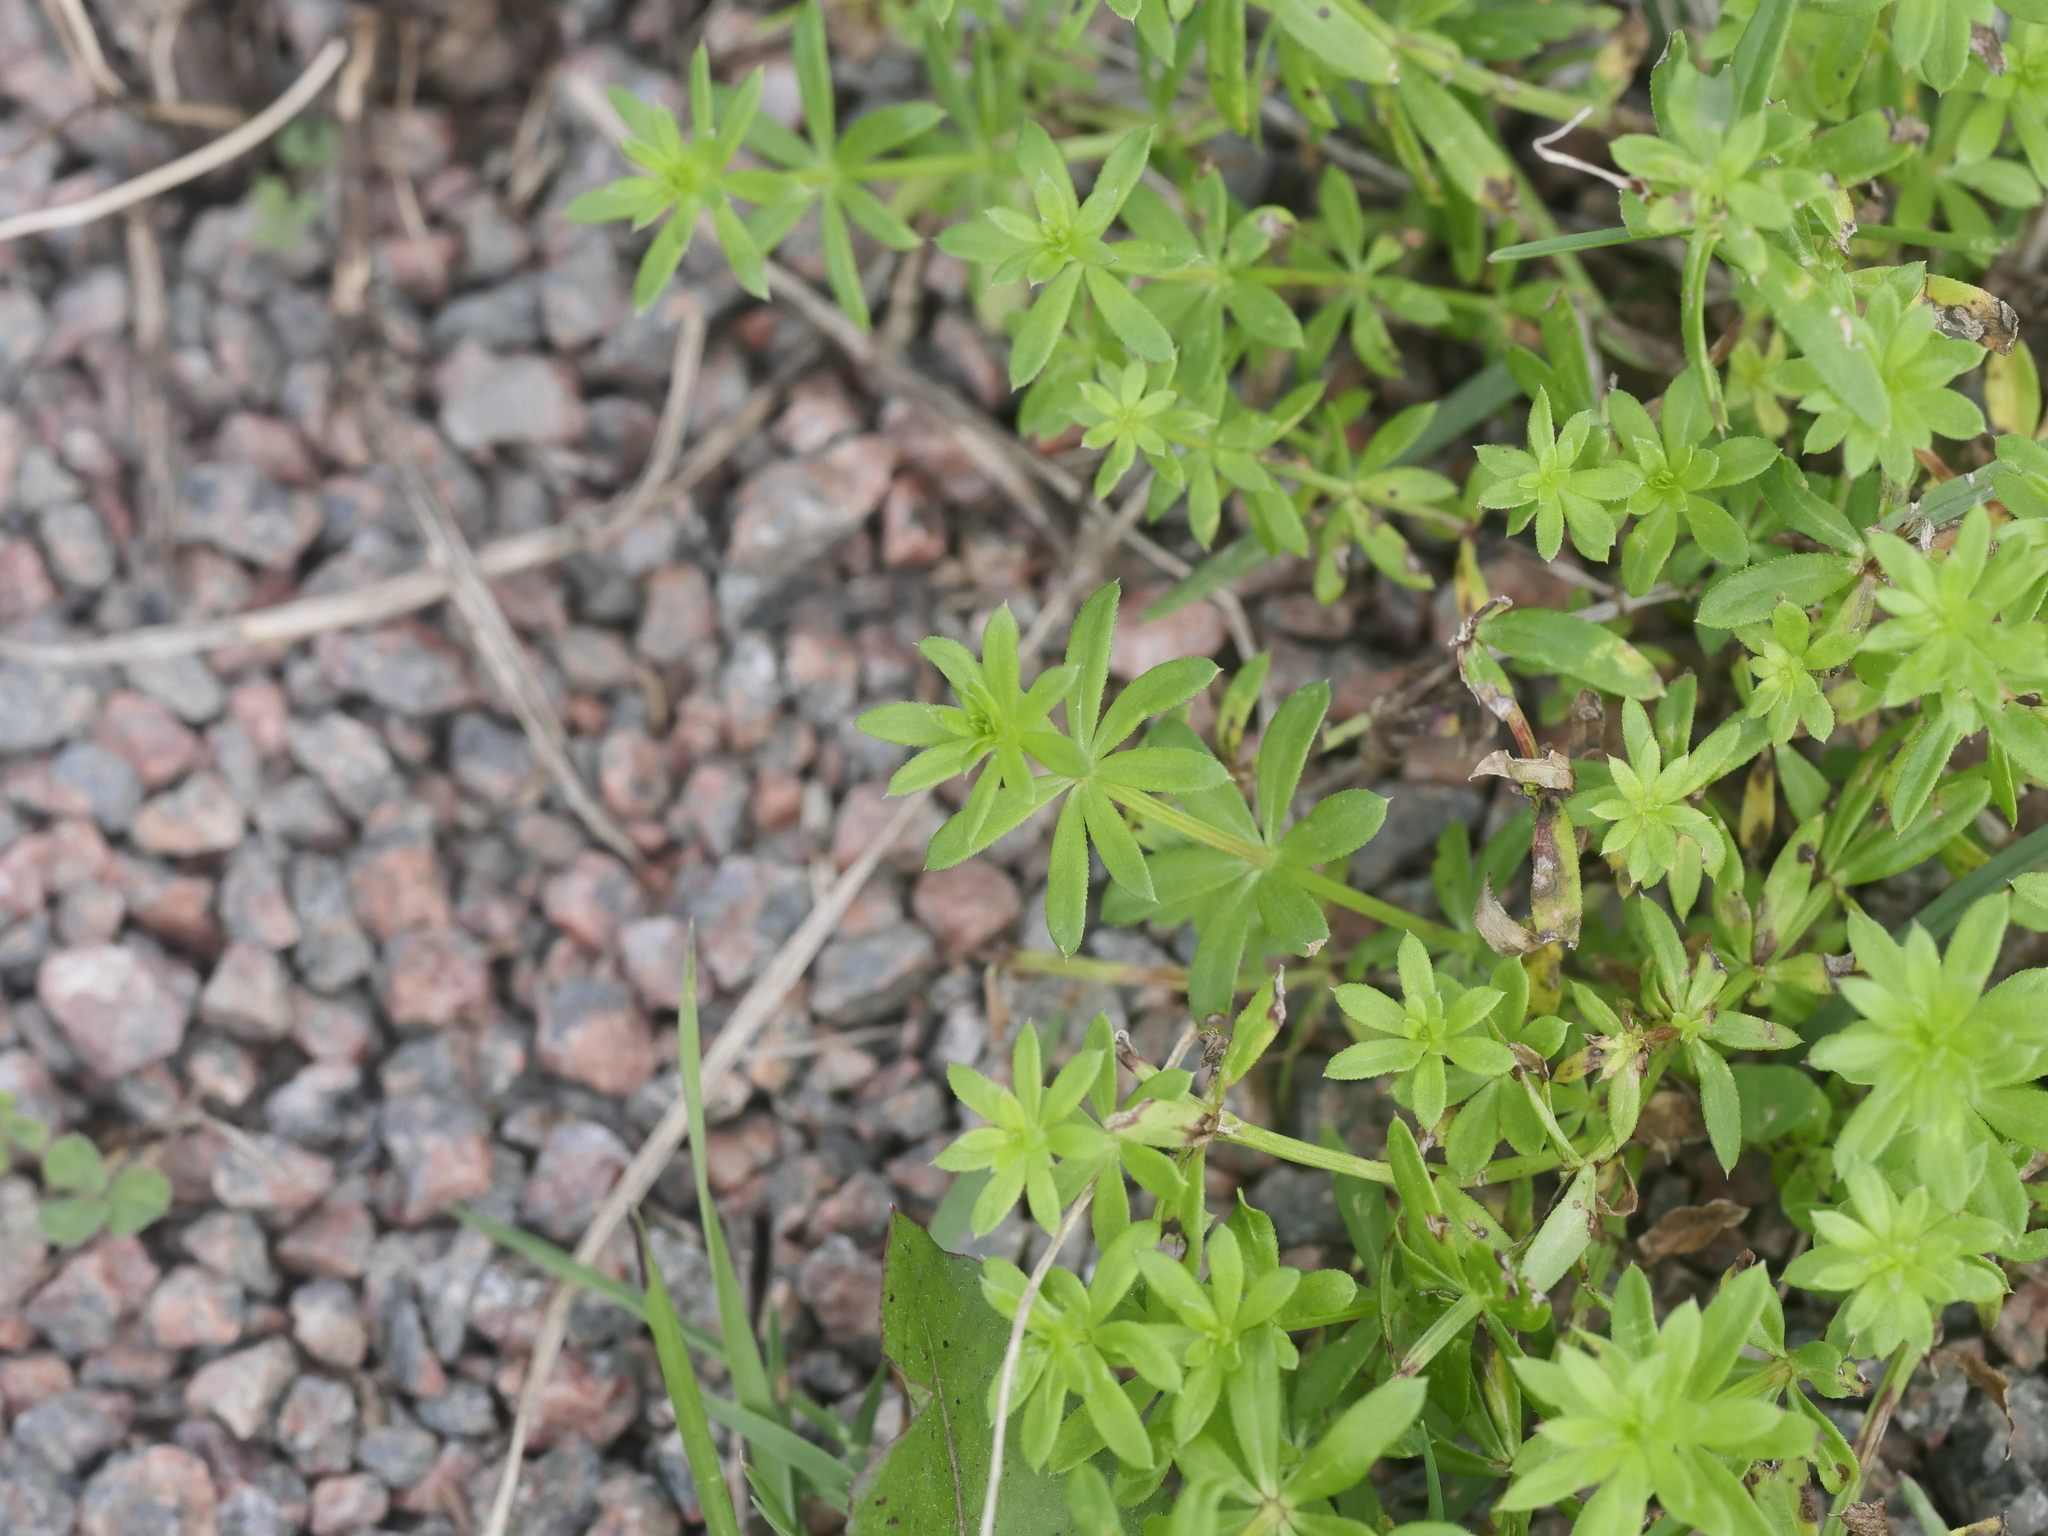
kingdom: Plantae
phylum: Tracheophyta
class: Magnoliopsida
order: Gentianales
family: Rubiaceae
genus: Galium
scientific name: Galium mollugo
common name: Hedge bedstraw
